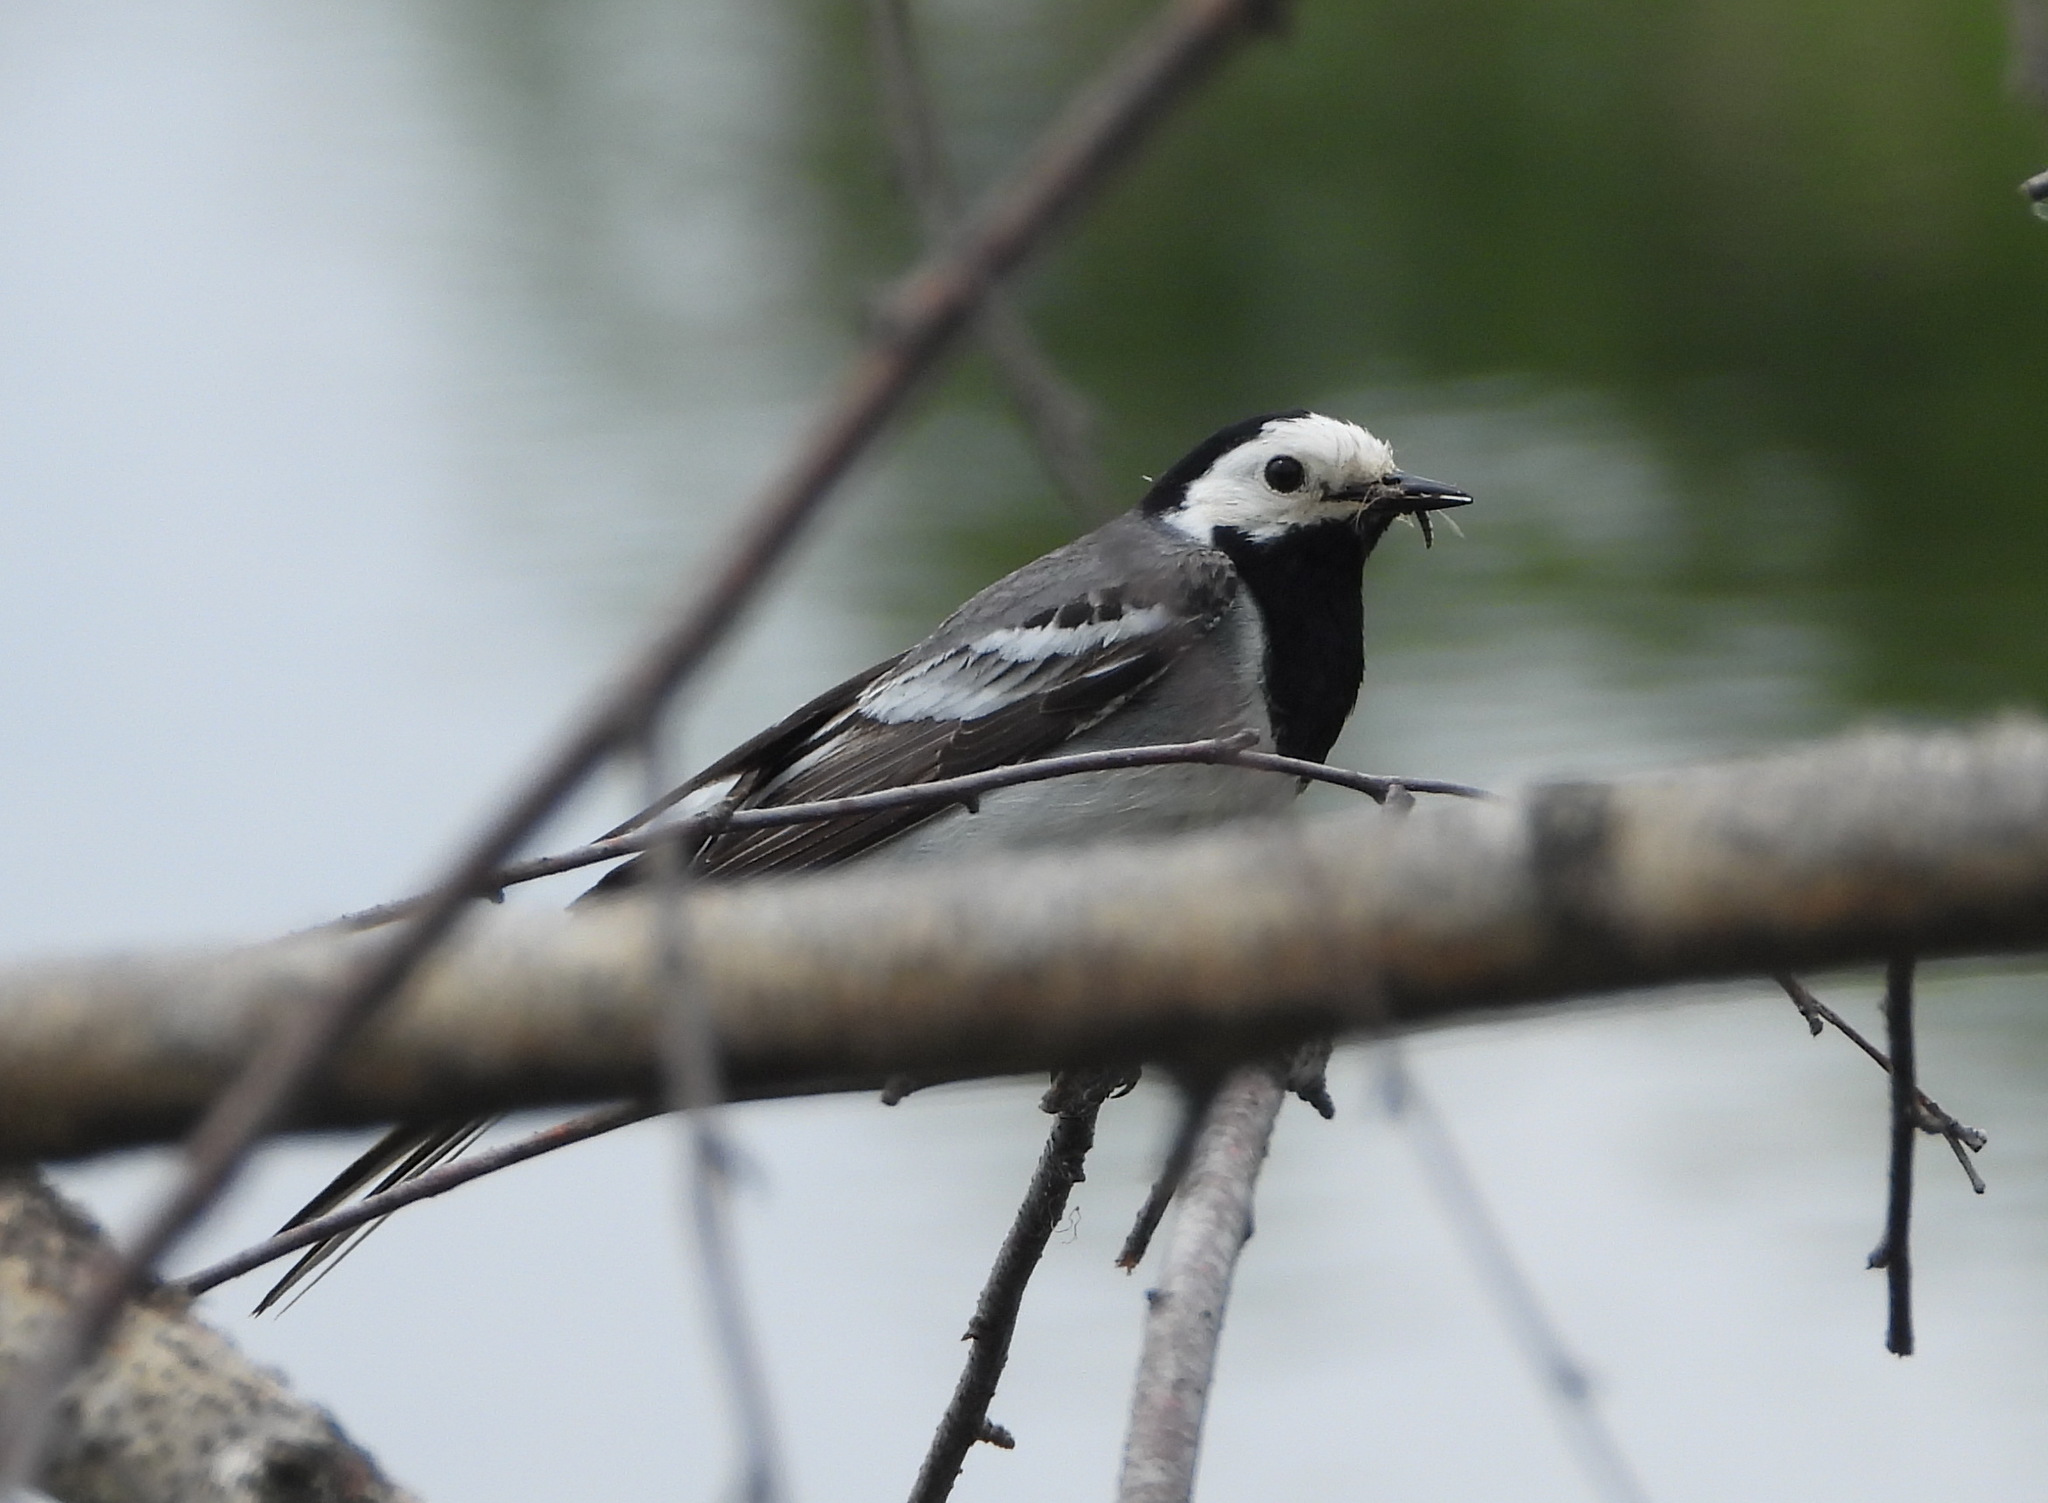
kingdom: Animalia
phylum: Chordata
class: Aves
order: Passeriformes
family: Motacillidae
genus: Motacilla
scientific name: Motacilla alba
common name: White wagtail
